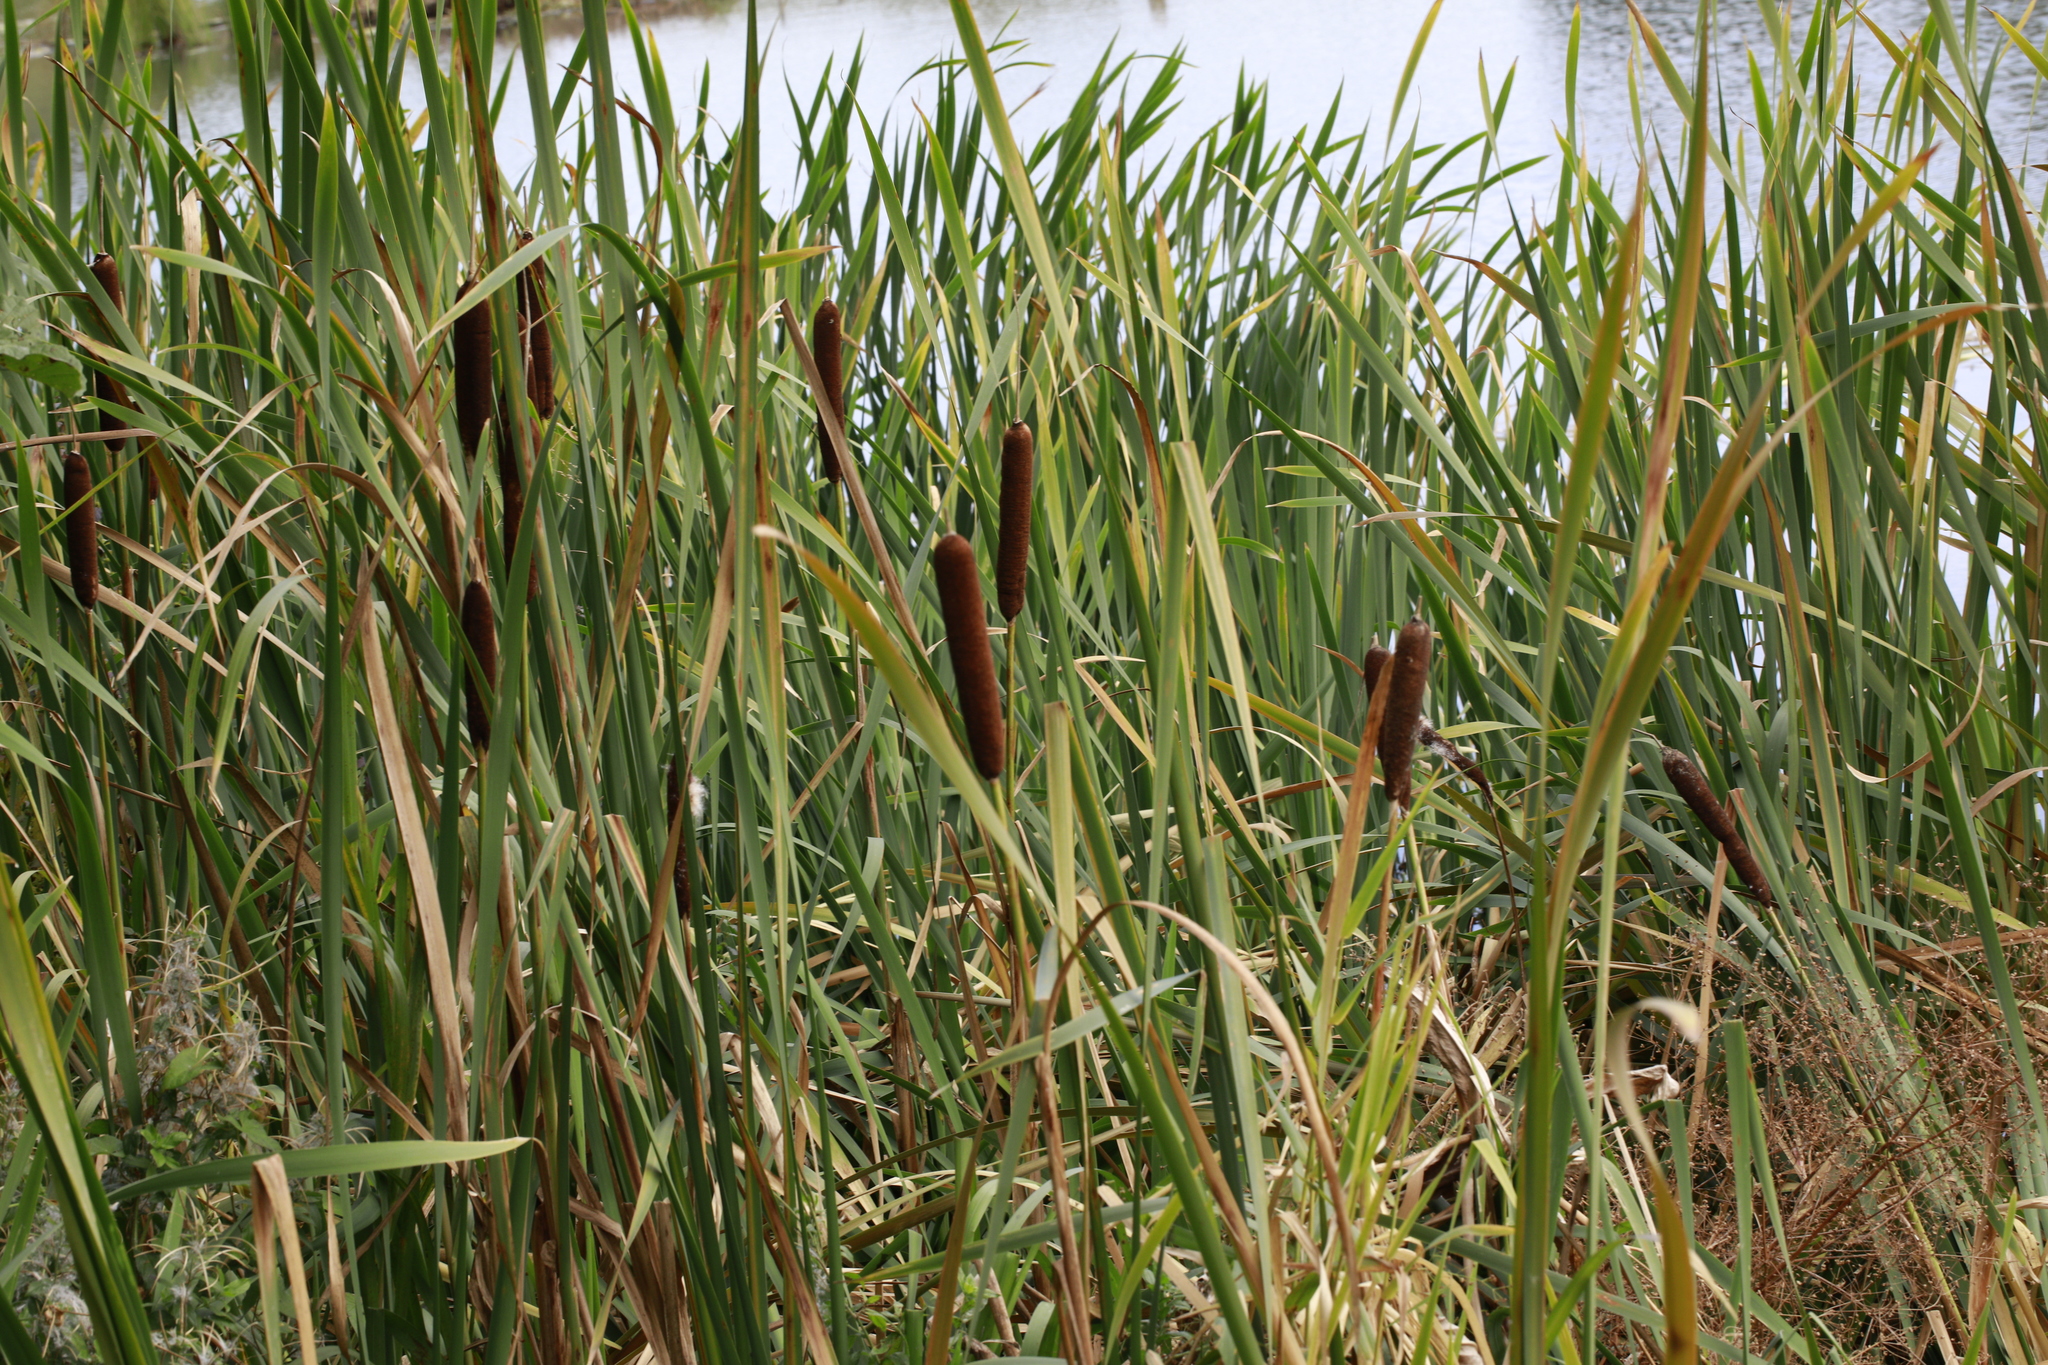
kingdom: Plantae
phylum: Tracheophyta
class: Liliopsida
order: Poales
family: Typhaceae
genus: Typha
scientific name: Typha latifolia
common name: Broadleaf cattail
